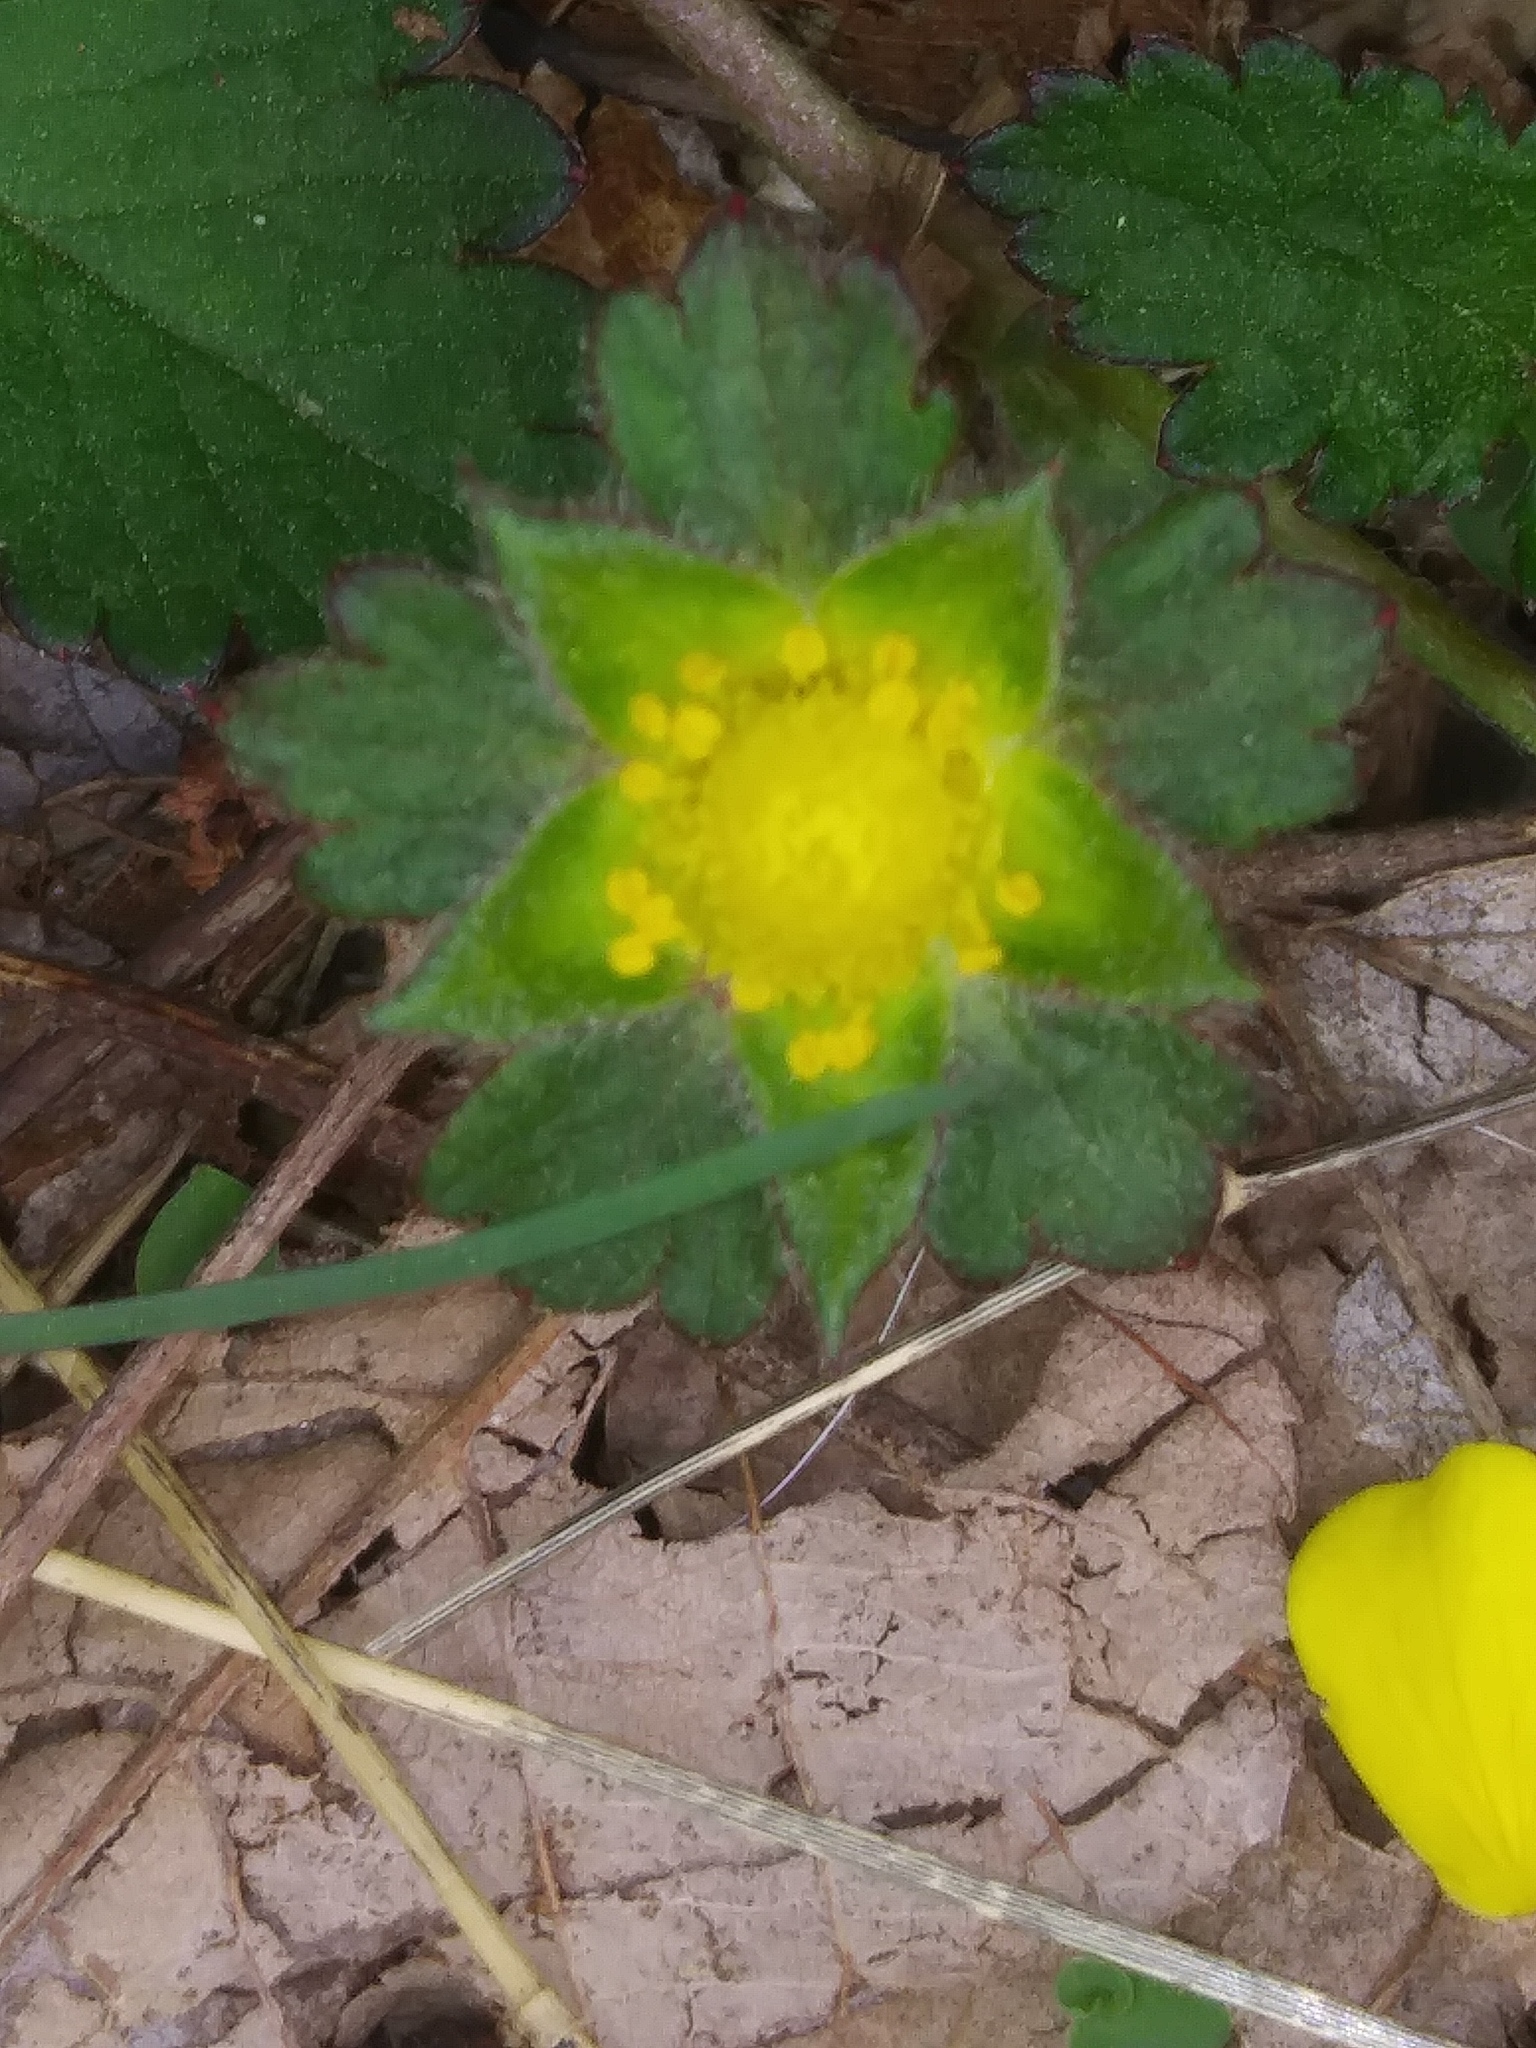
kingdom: Plantae
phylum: Tracheophyta
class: Magnoliopsida
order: Rosales
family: Rosaceae
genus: Potentilla
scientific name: Potentilla indica
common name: Yellow-flowered strawberry
